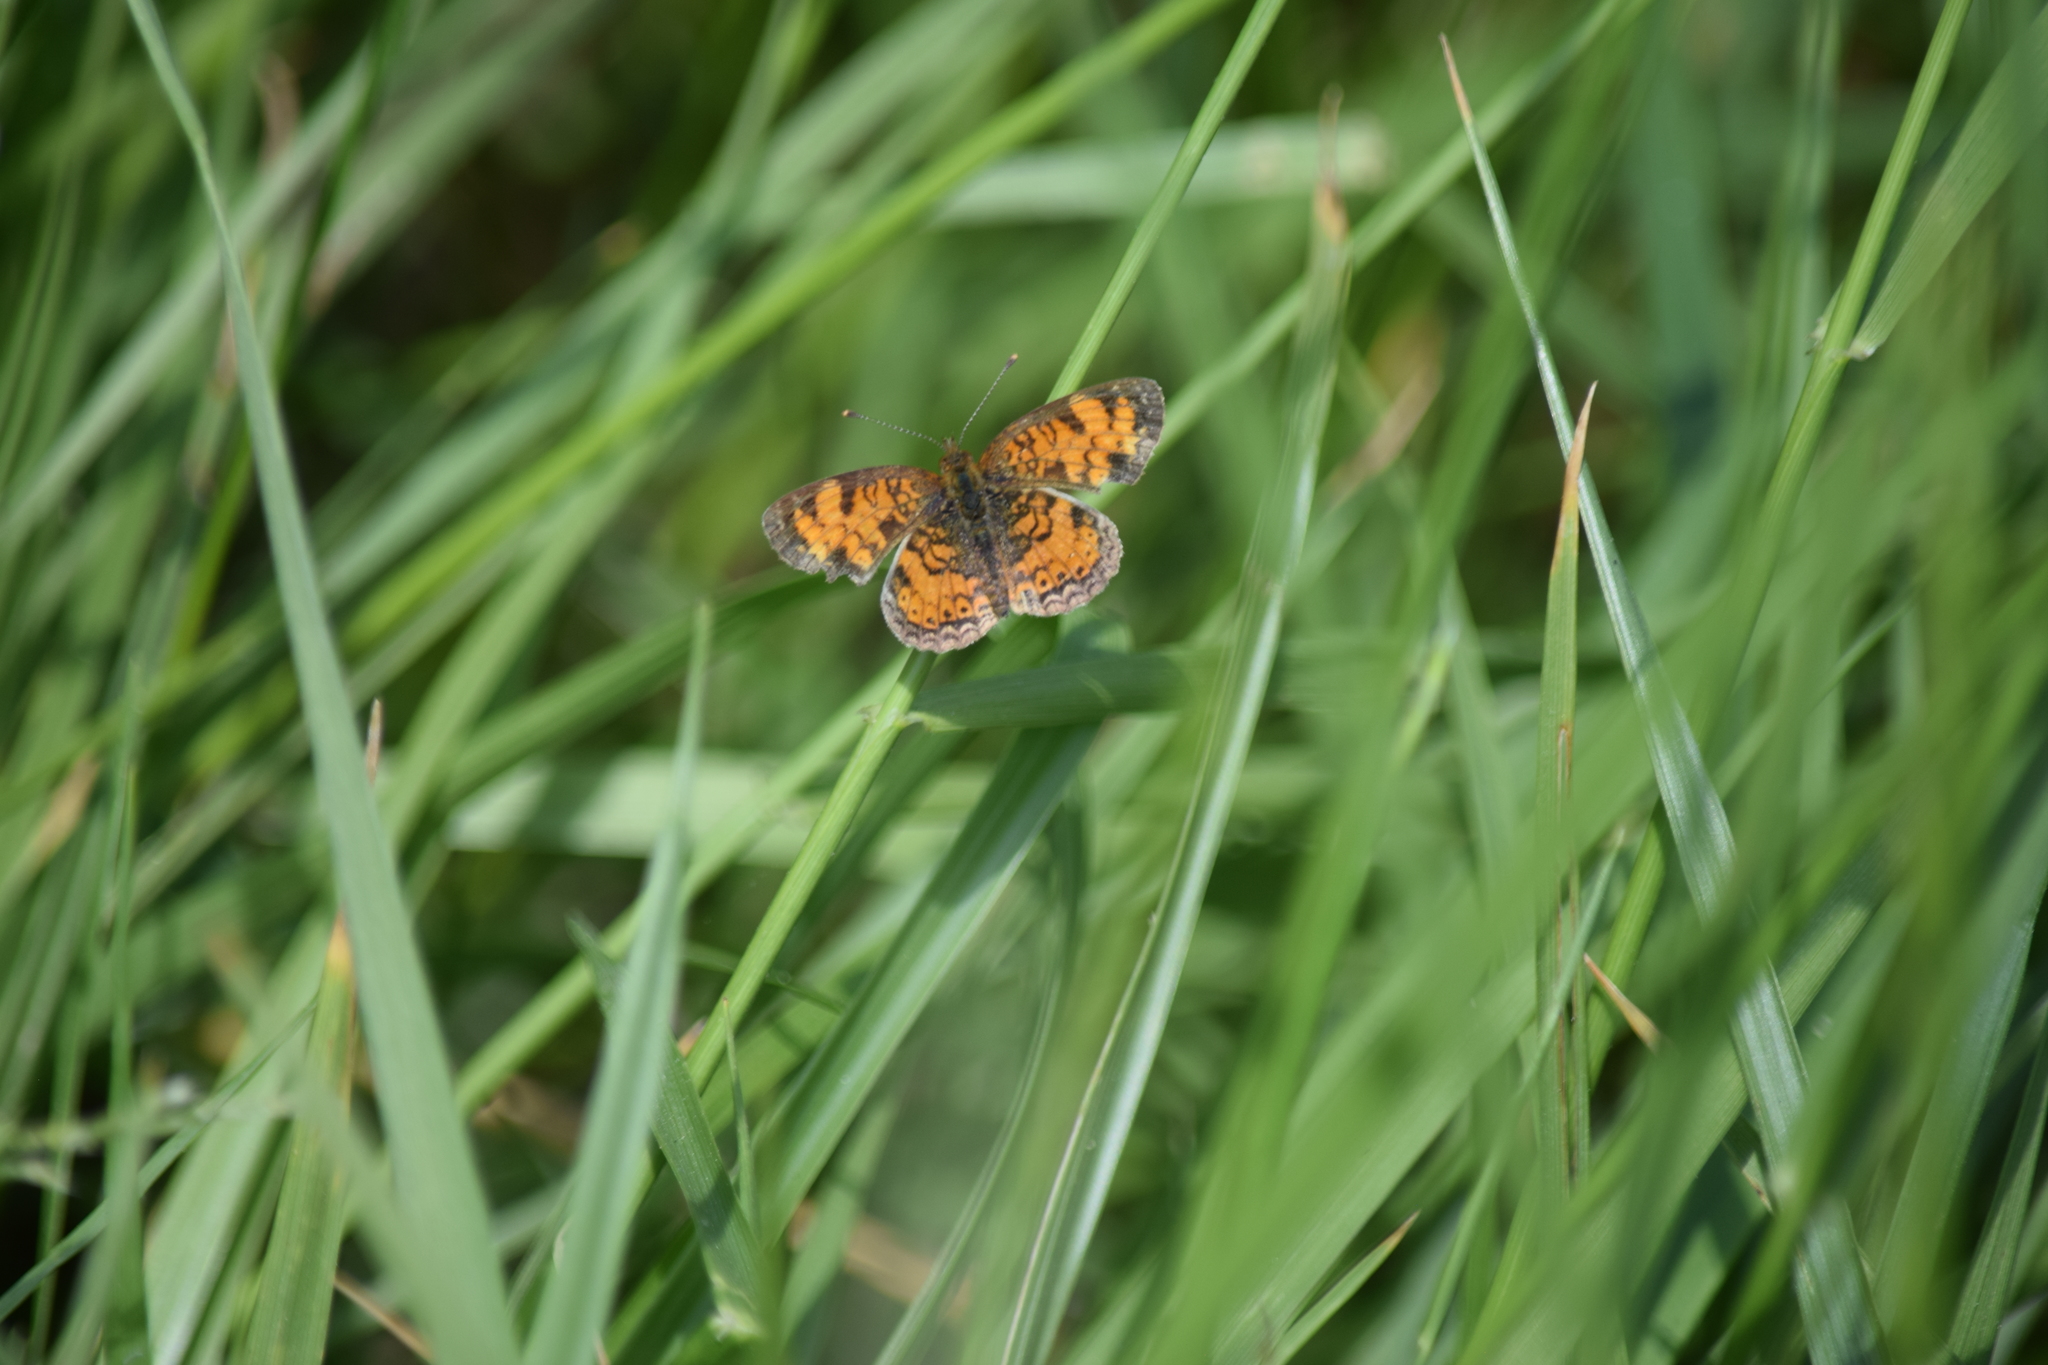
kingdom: Animalia
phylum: Arthropoda
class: Insecta
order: Lepidoptera
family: Nymphalidae
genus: Phyciodes
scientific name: Phyciodes tharos
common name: Pearl crescent
